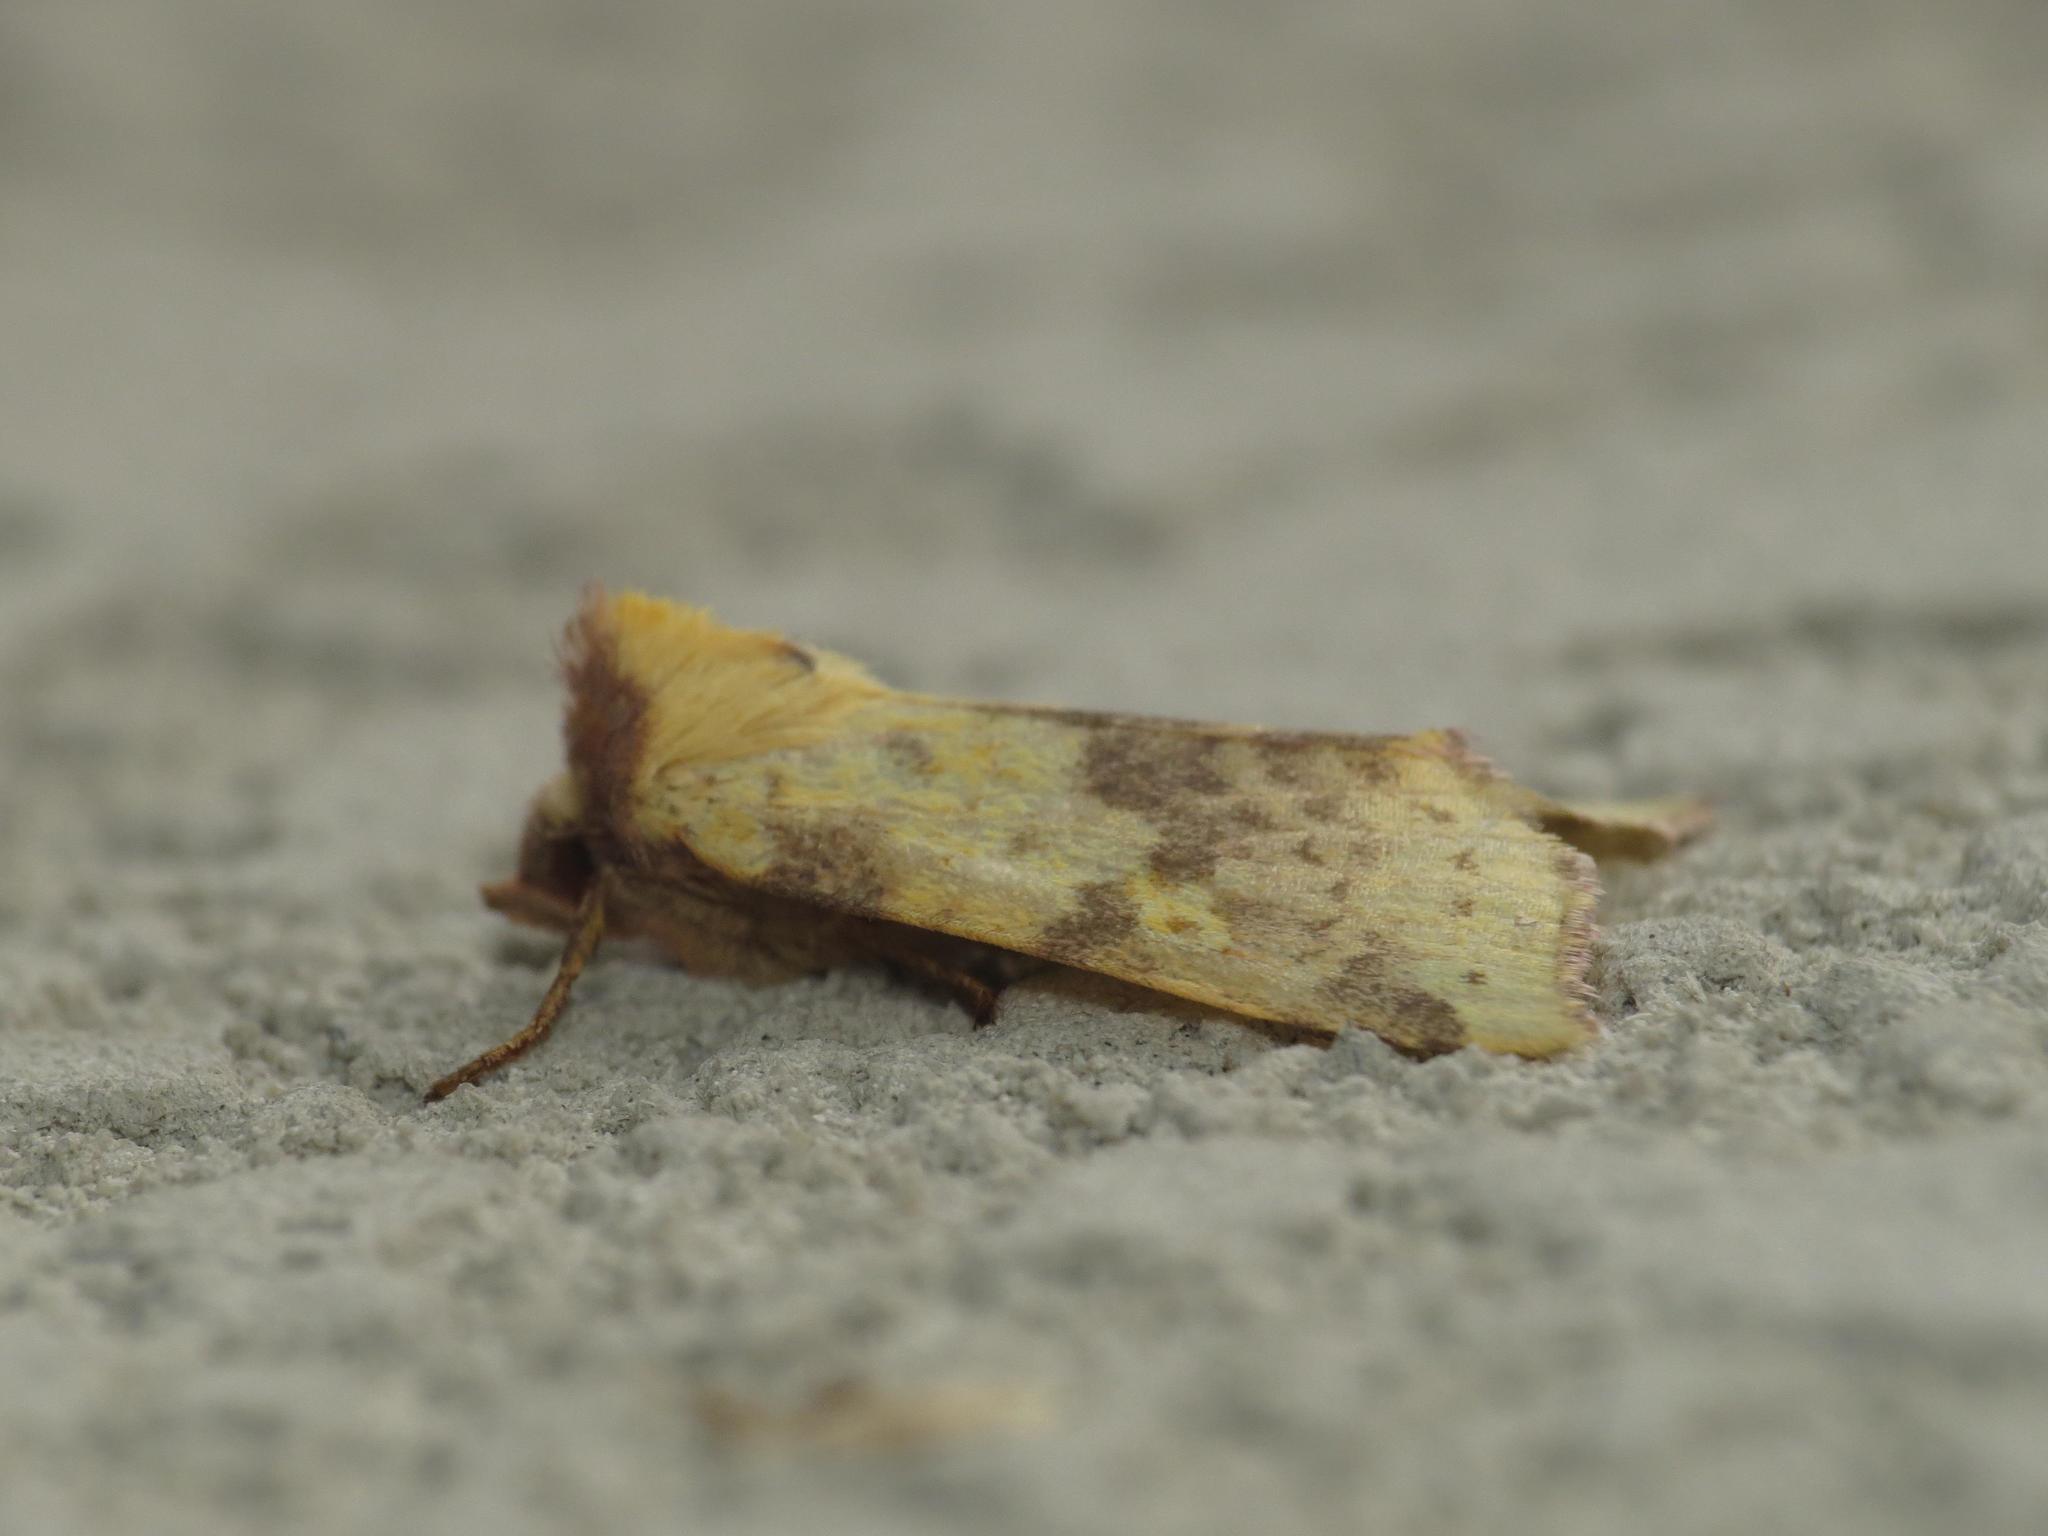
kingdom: Animalia
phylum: Arthropoda
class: Insecta
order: Lepidoptera
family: Noctuidae
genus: Xanthia
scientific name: Xanthia togata
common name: Pink-barred sallow
